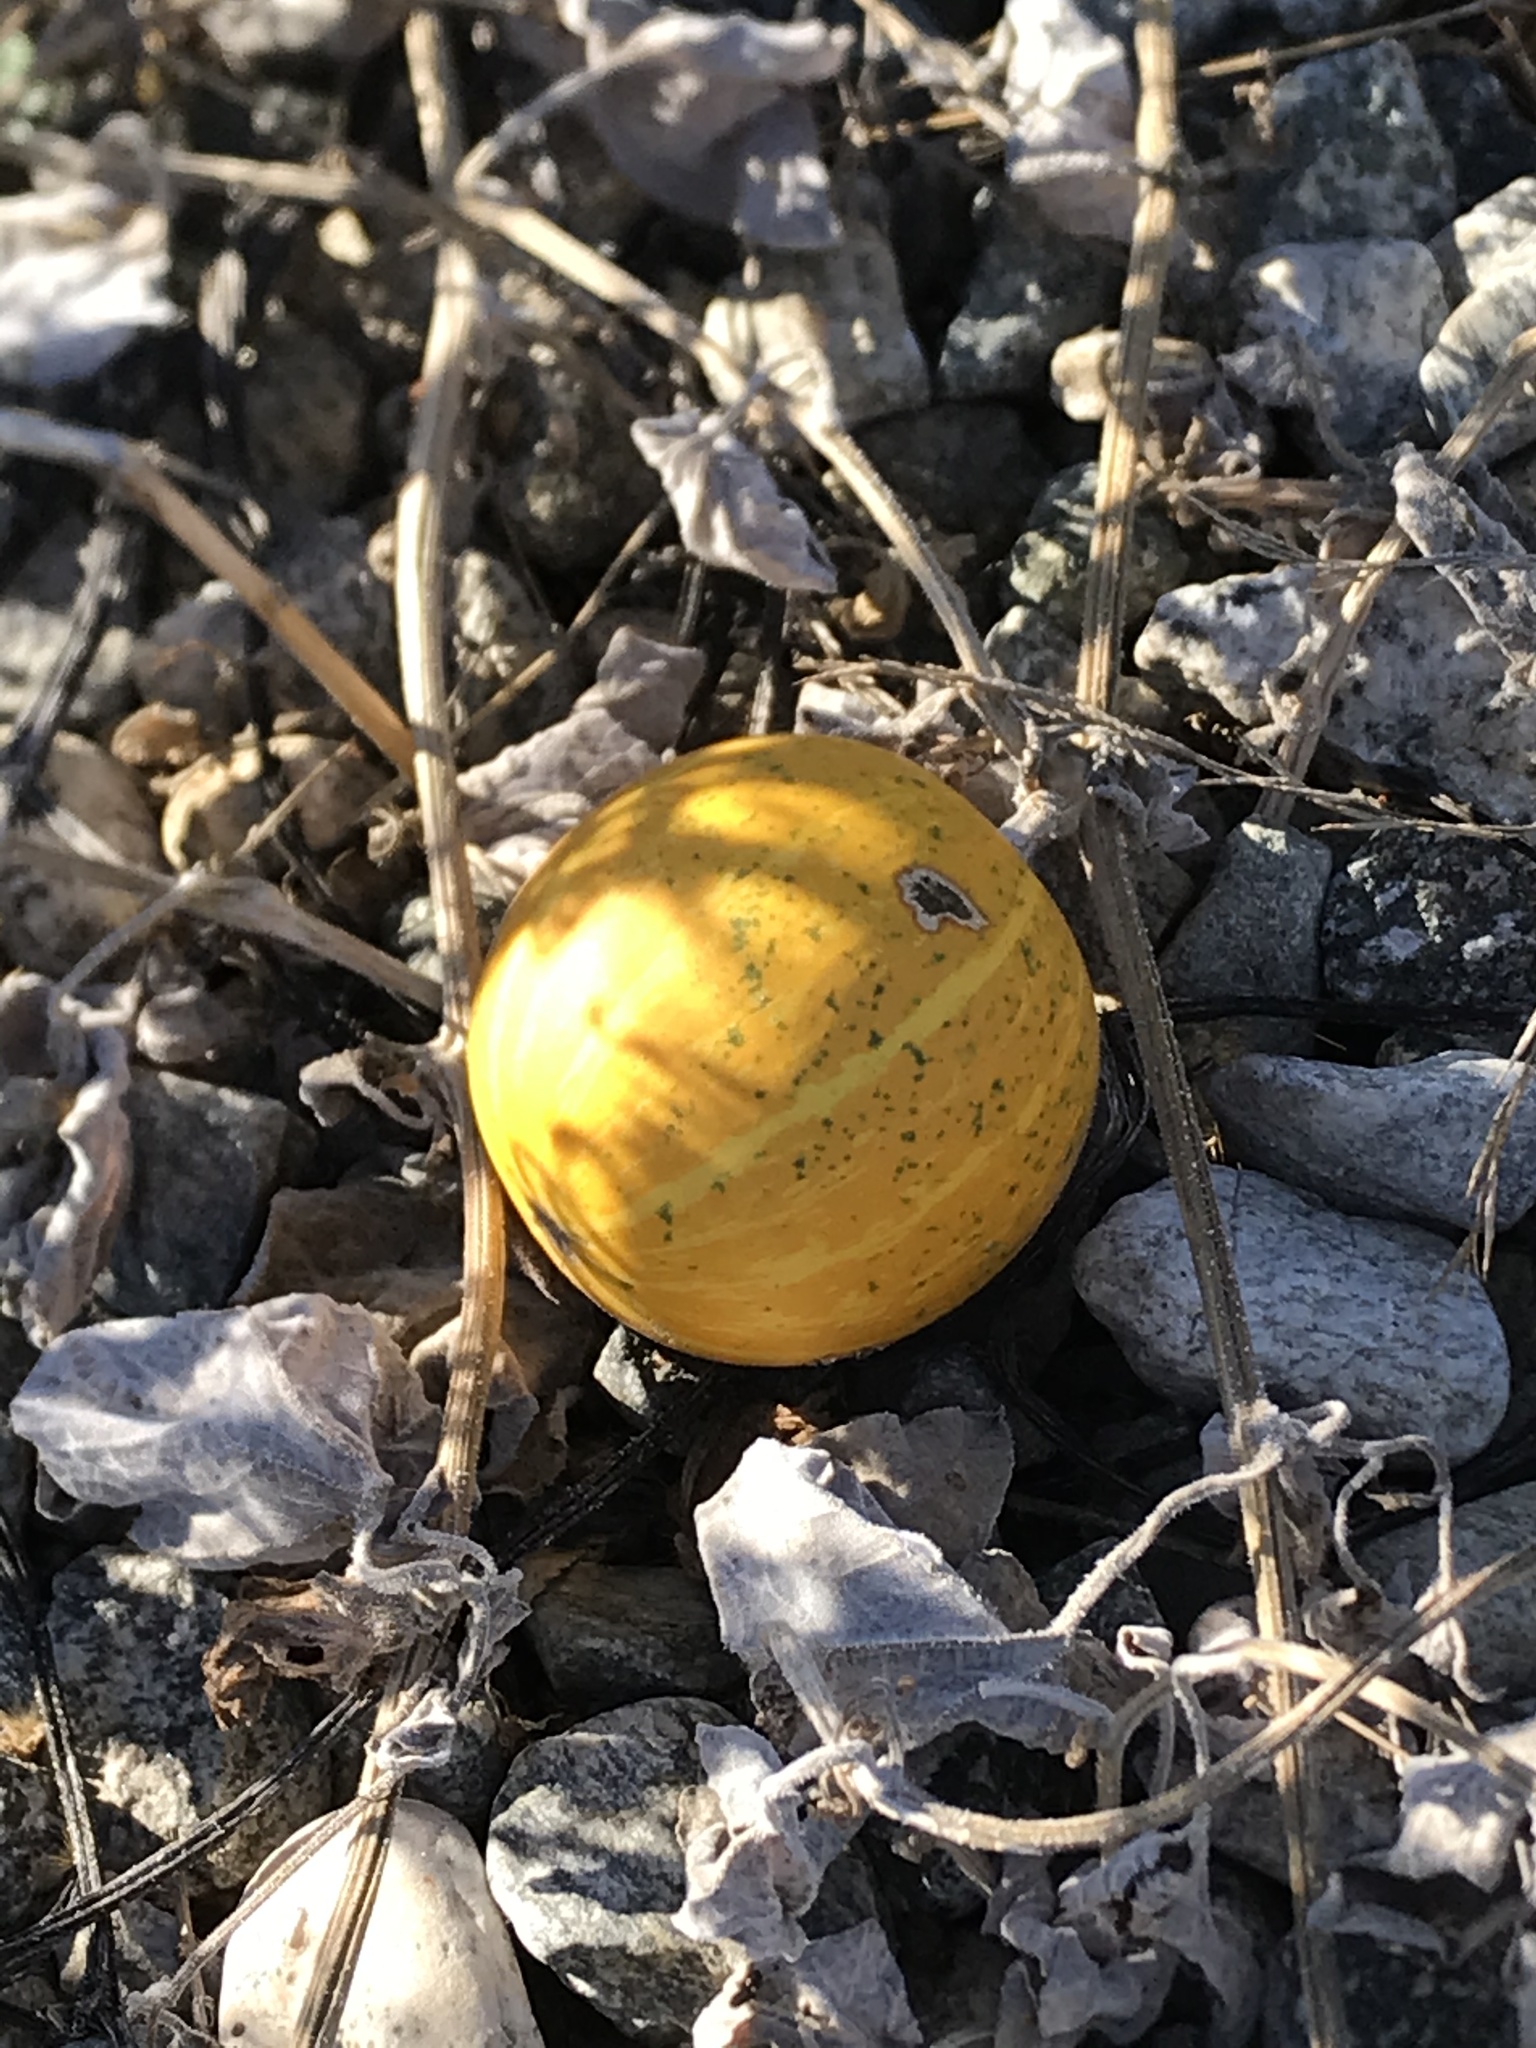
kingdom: Plantae
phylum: Tracheophyta
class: Magnoliopsida
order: Cucurbitales
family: Cucurbitaceae
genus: Cucurbita
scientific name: Cucurbita foetidissima
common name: Buffalo gourd
